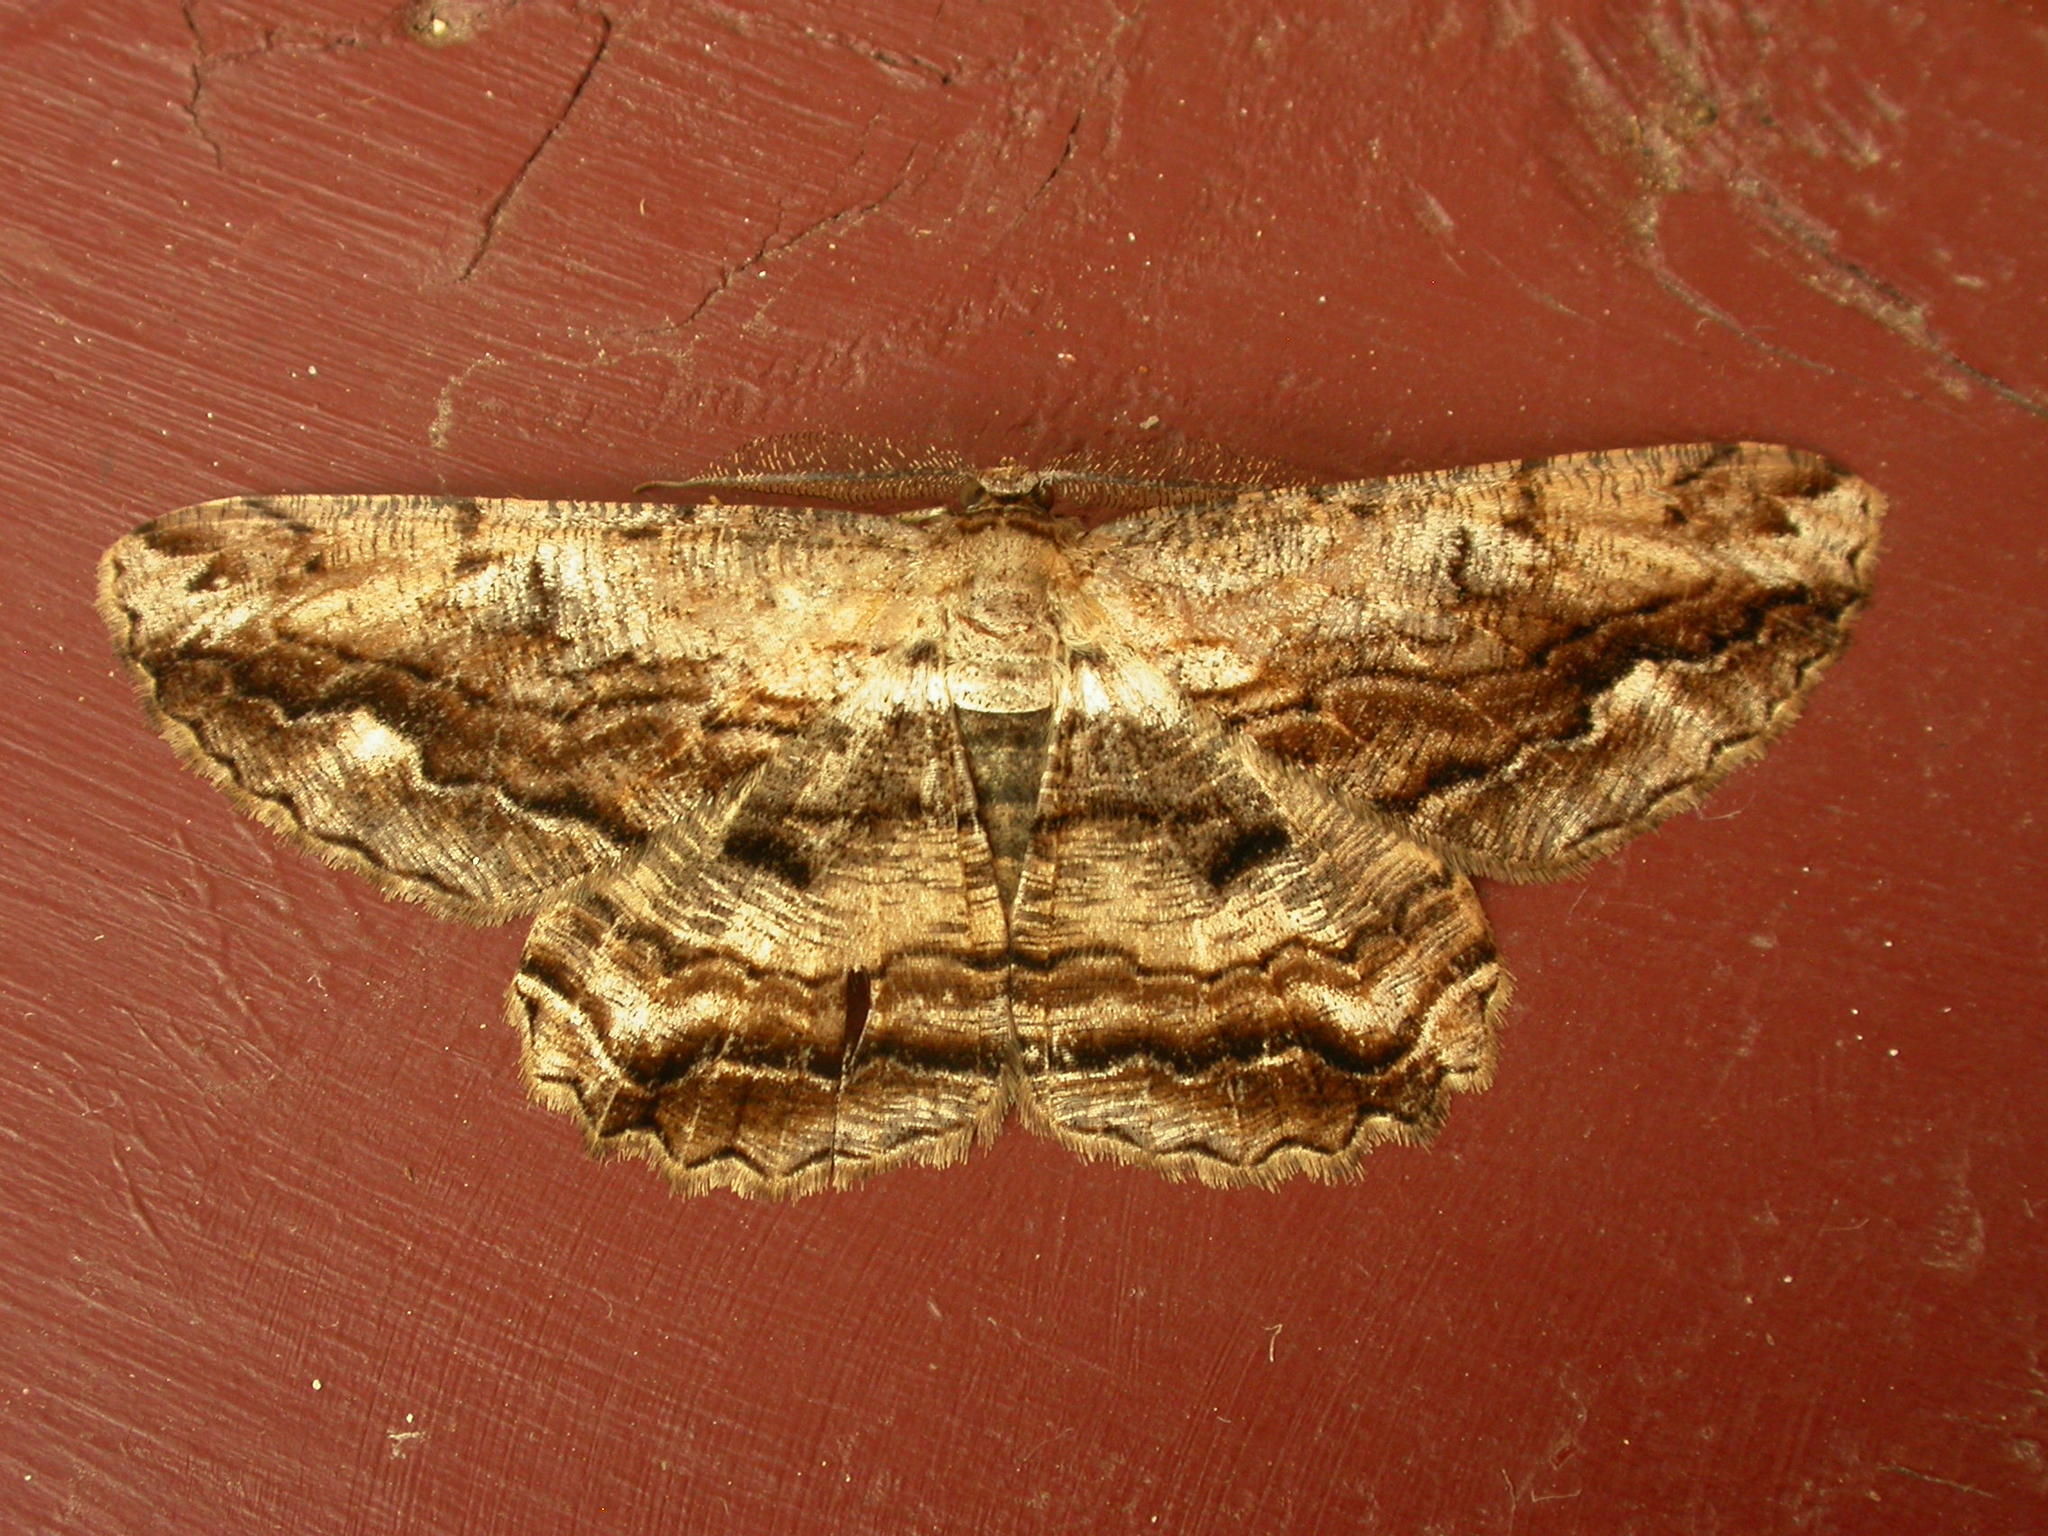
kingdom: Animalia
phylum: Arthropoda
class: Insecta
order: Lepidoptera
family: Geometridae
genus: Scioglyptis
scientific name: Scioglyptis lyciaria
